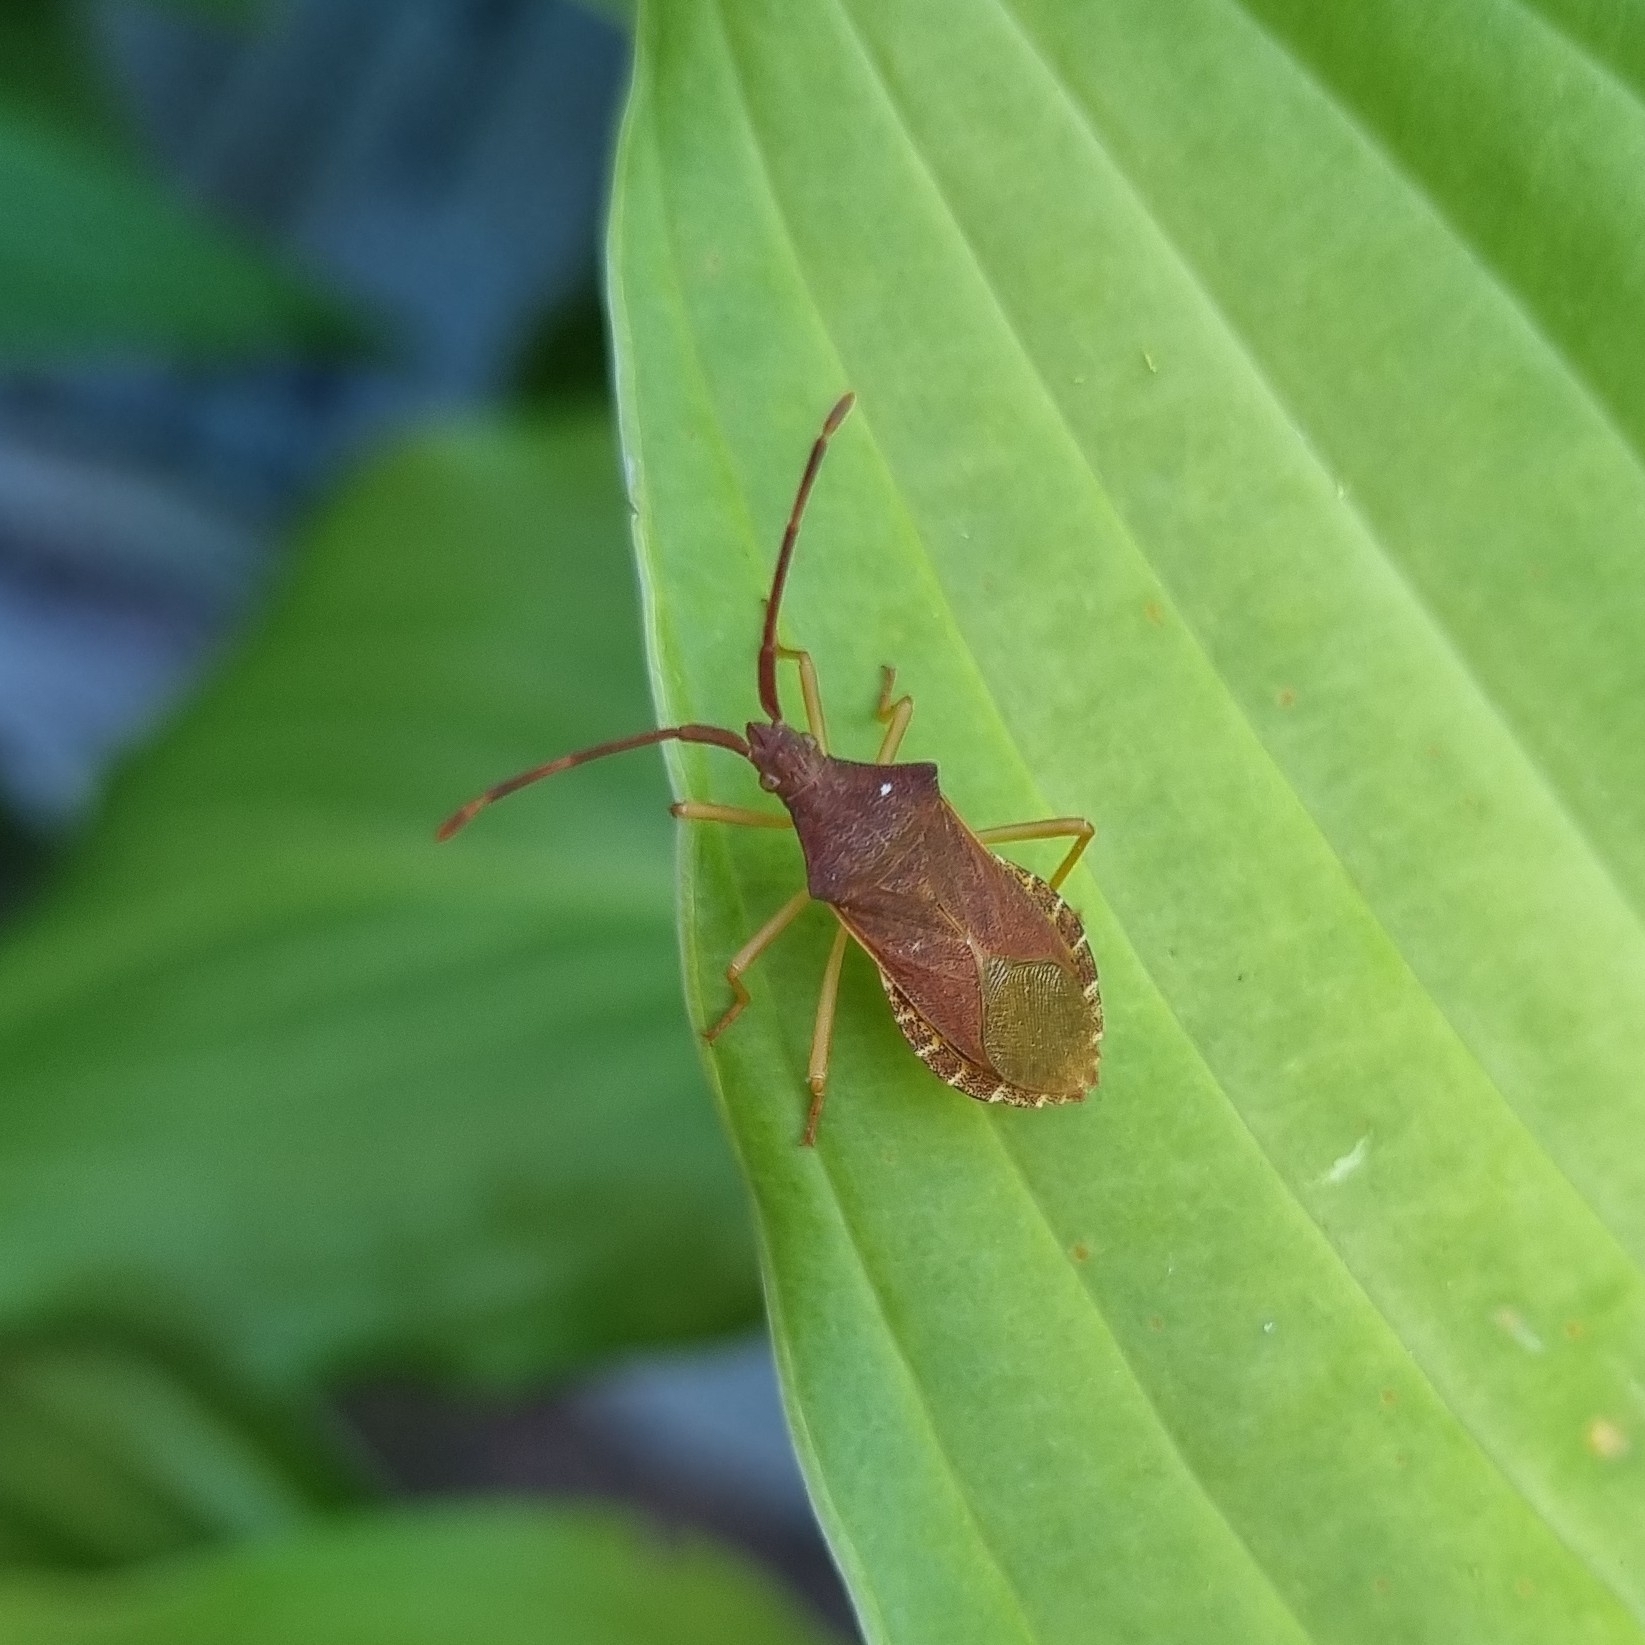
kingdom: Animalia
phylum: Arthropoda
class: Insecta
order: Hemiptera
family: Coreidae
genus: Gonocerus
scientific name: Gonocerus acuteangulatus
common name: Box bug
